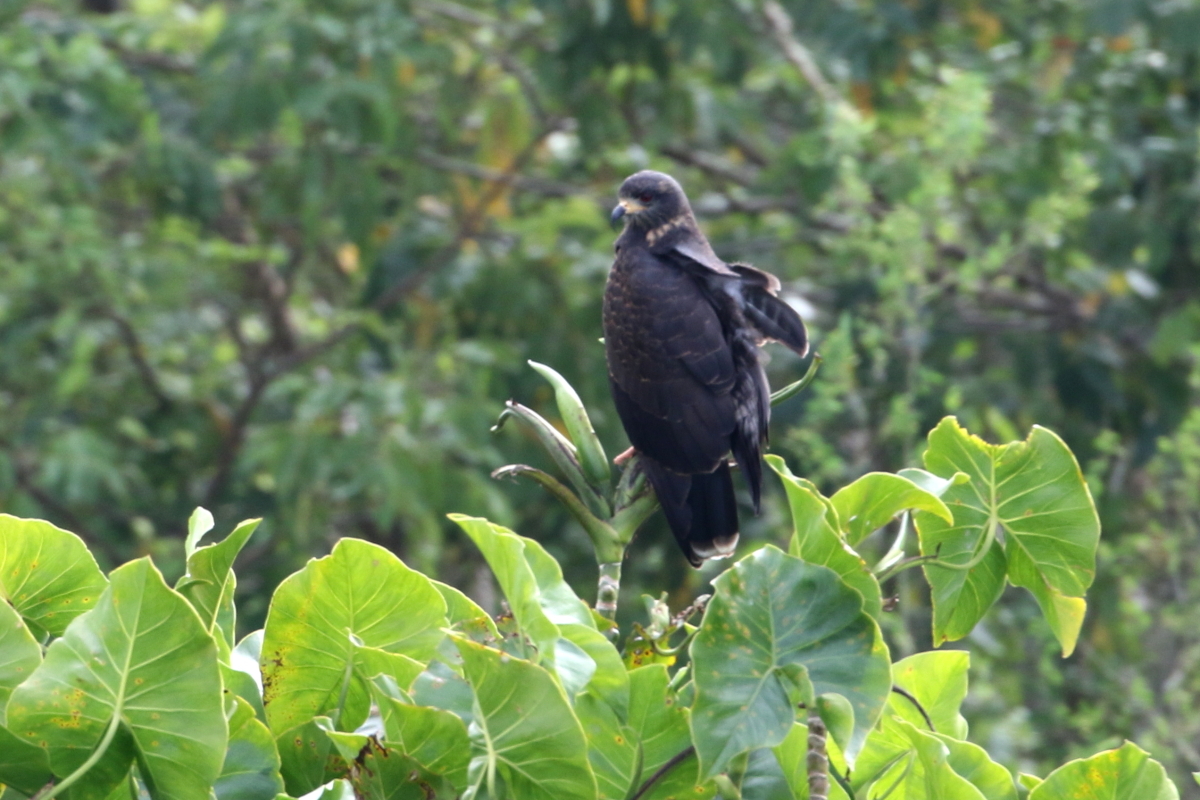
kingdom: Animalia
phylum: Chordata
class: Aves
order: Accipitriformes
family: Accipitridae
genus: Rostrhamus
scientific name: Rostrhamus sociabilis
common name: Snail kite
